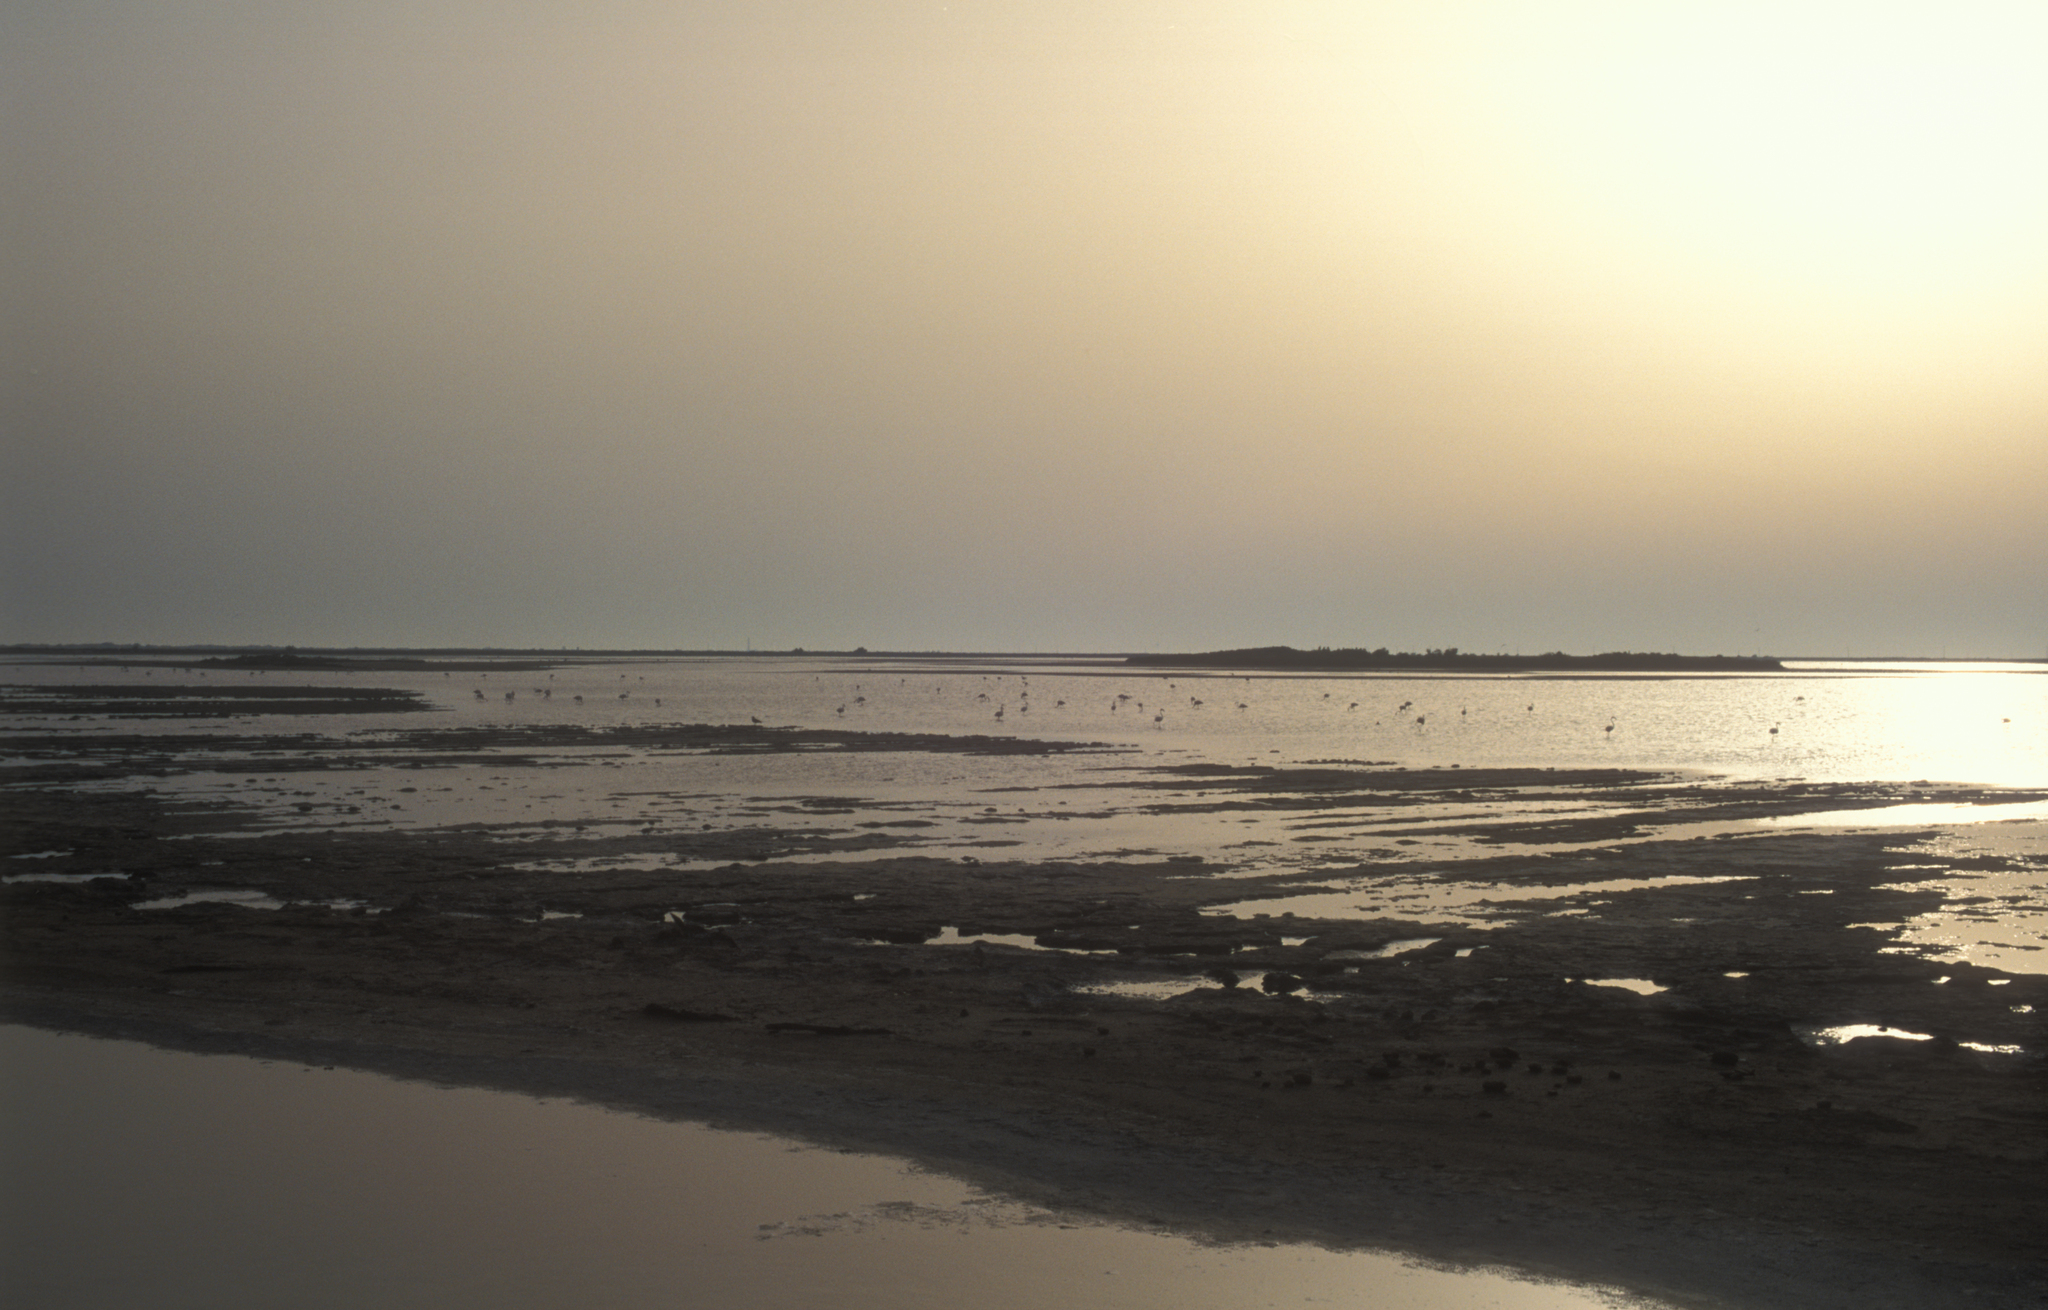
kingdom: Animalia
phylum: Chordata
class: Aves
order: Phoenicopteriformes
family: Phoenicopteridae
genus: Phoenicopterus
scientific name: Phoenicopterus roseus
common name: Greater flamingo
